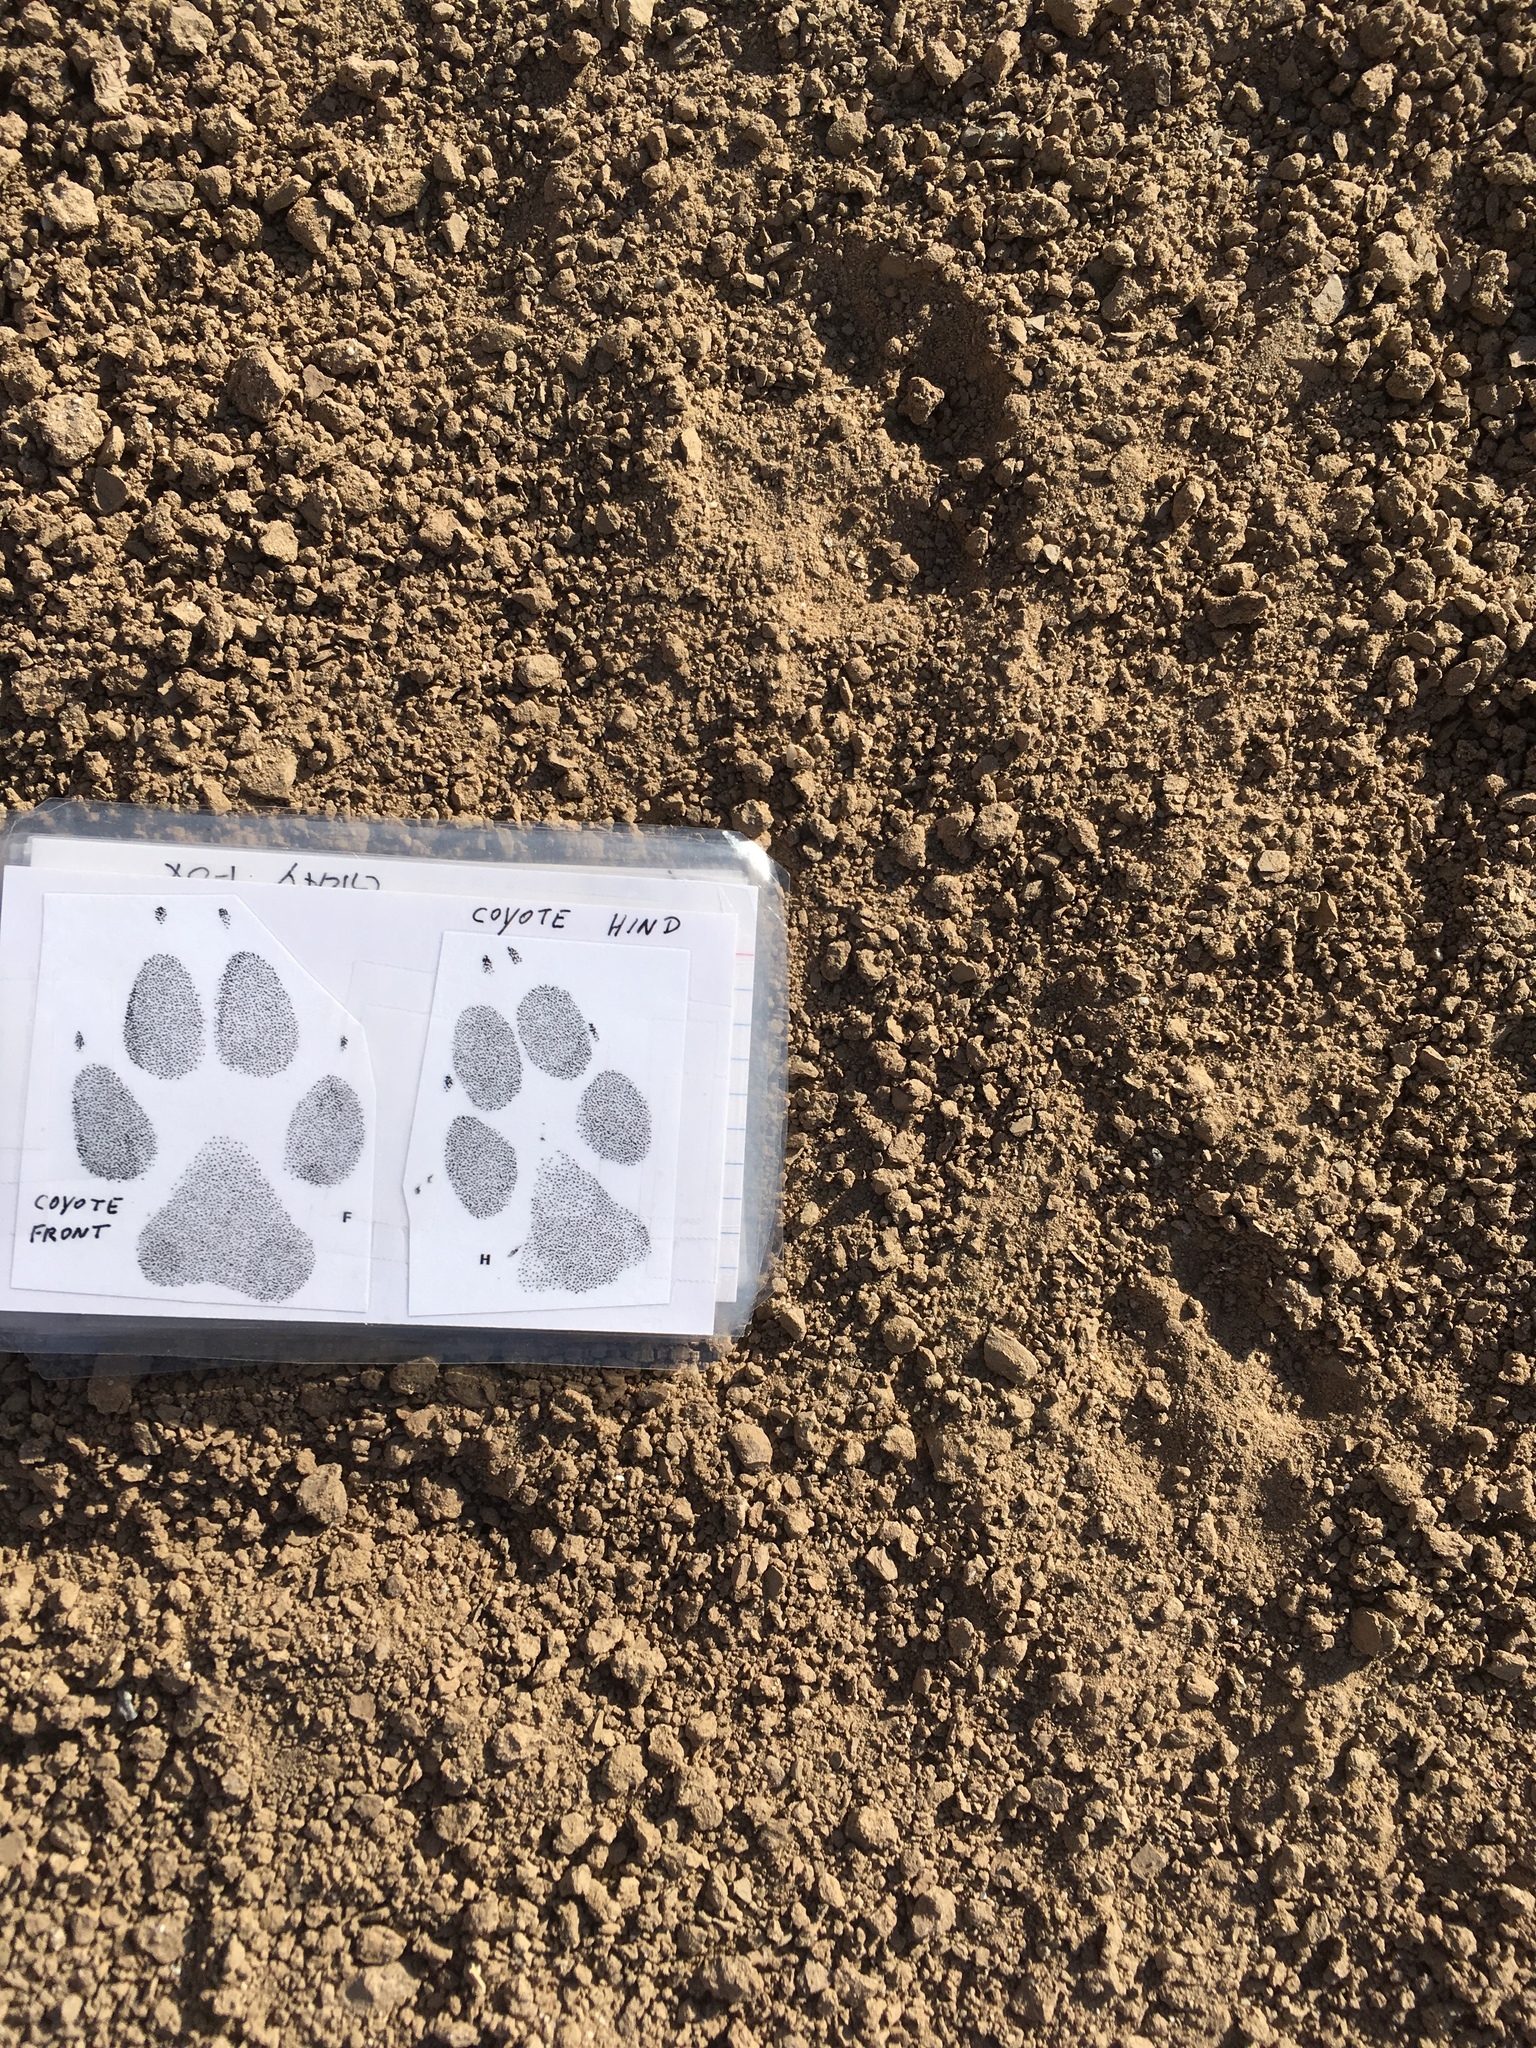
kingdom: Animalia
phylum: Chordata
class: Mammalia
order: Carnivora
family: Canidae
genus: Canis
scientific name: Canis latrans
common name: Coyote
